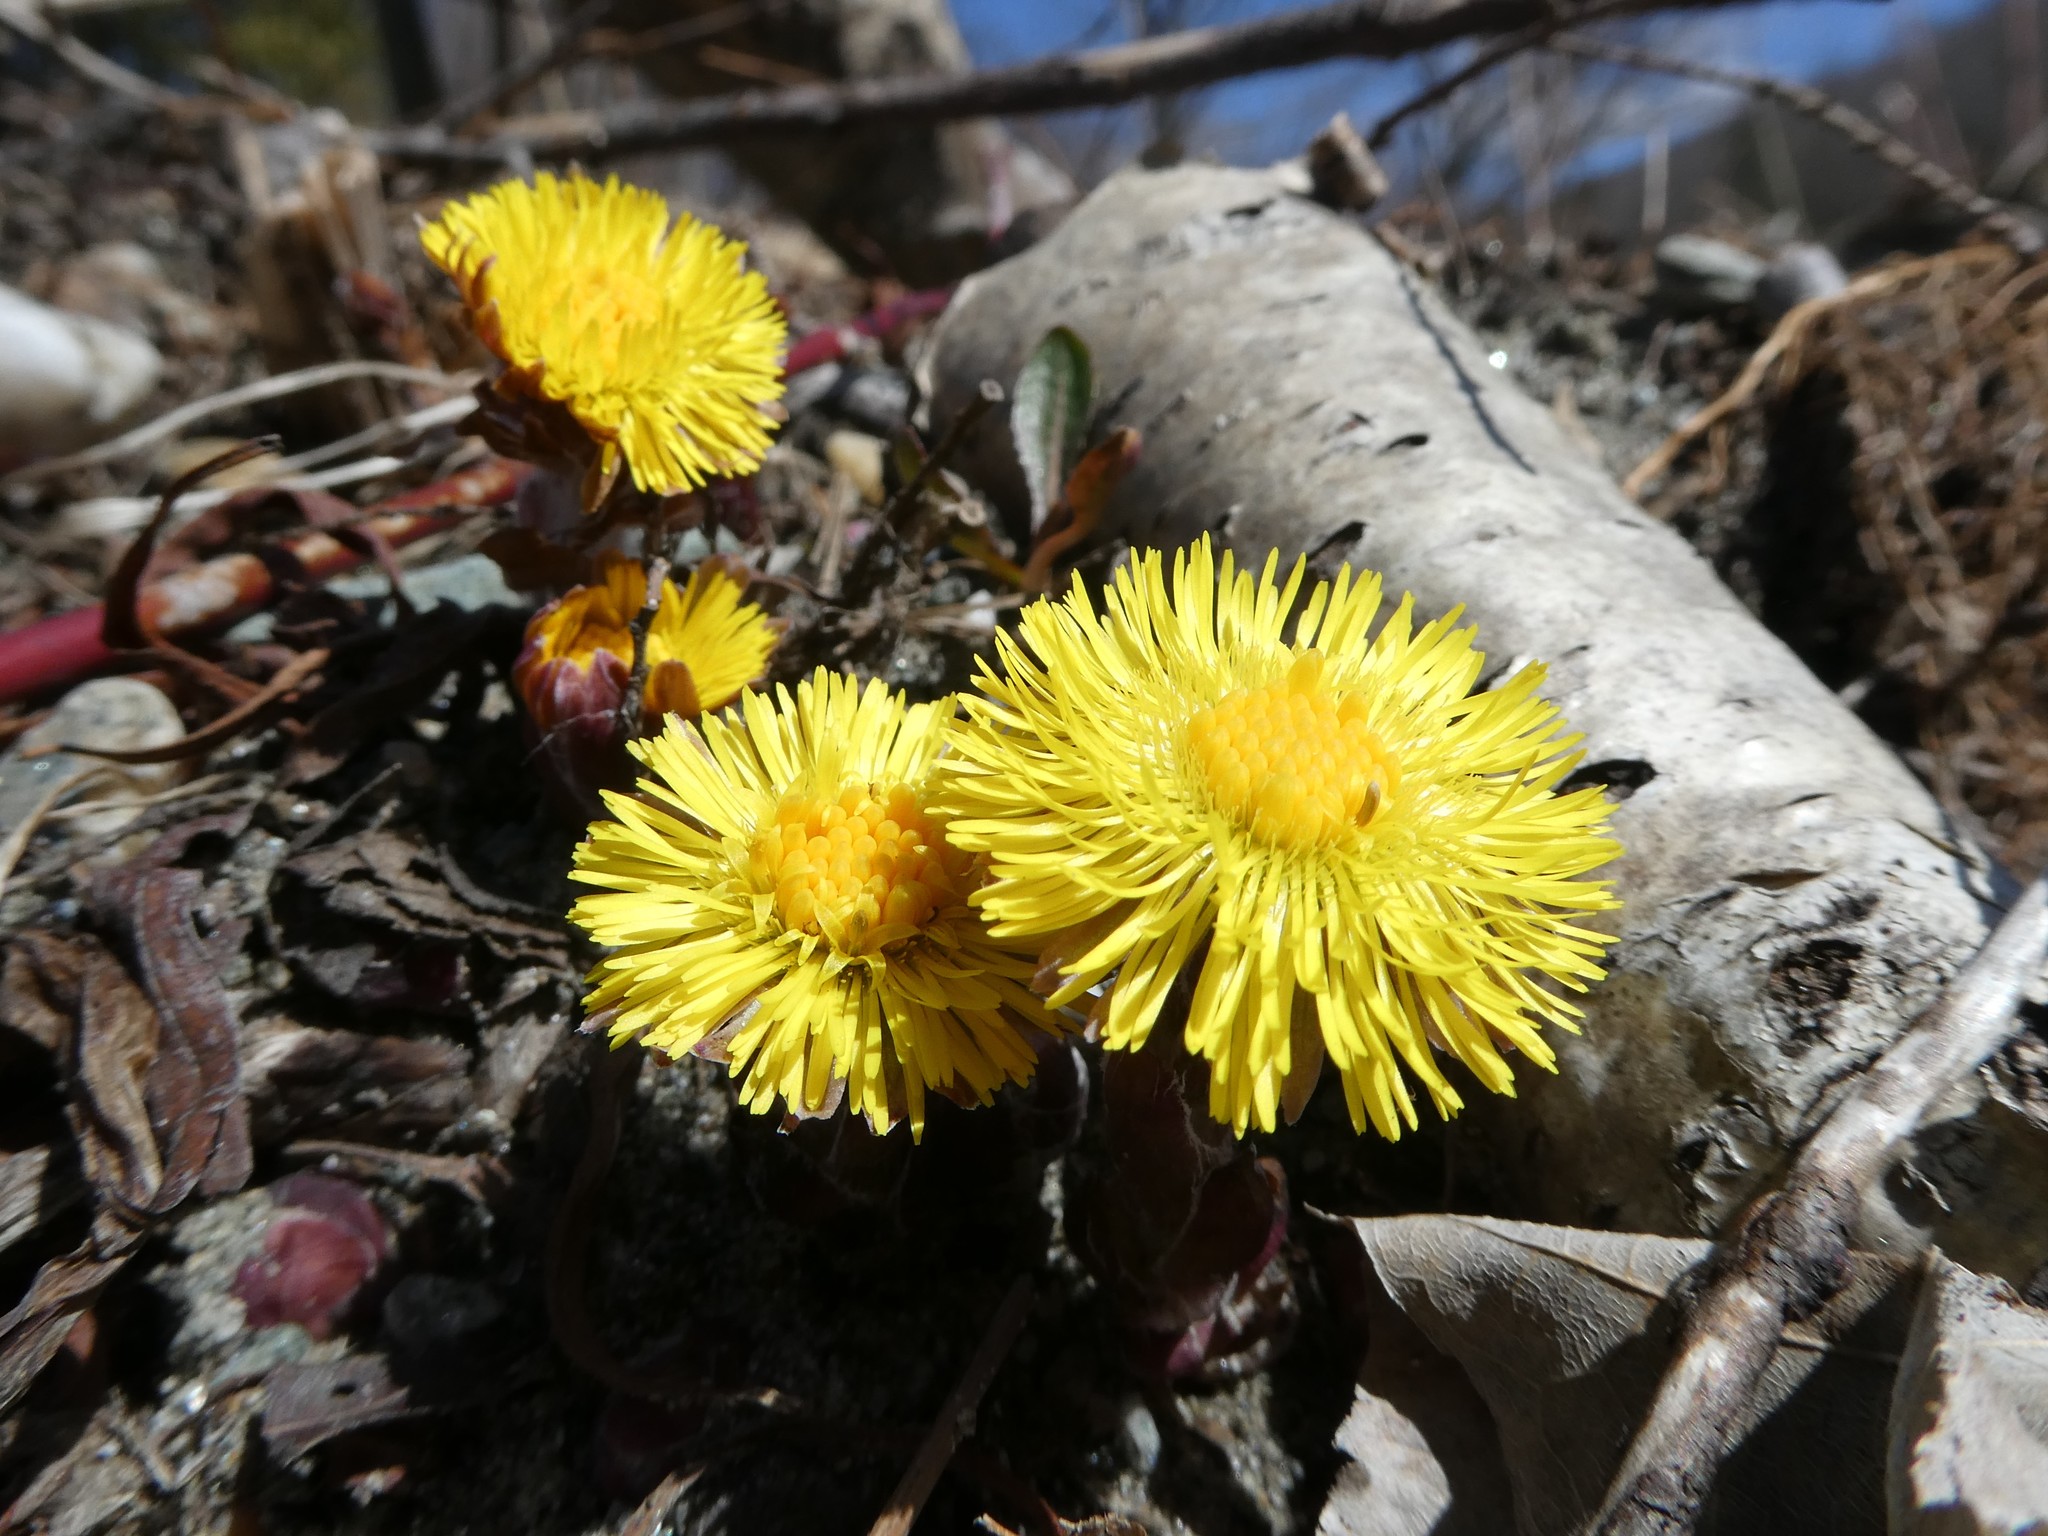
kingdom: Plantae
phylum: Tracheophyta
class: Magnoliopsida
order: Asterales
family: Asteraceae
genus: Tussilago
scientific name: Tussilago farfara
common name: Coltsfoot
